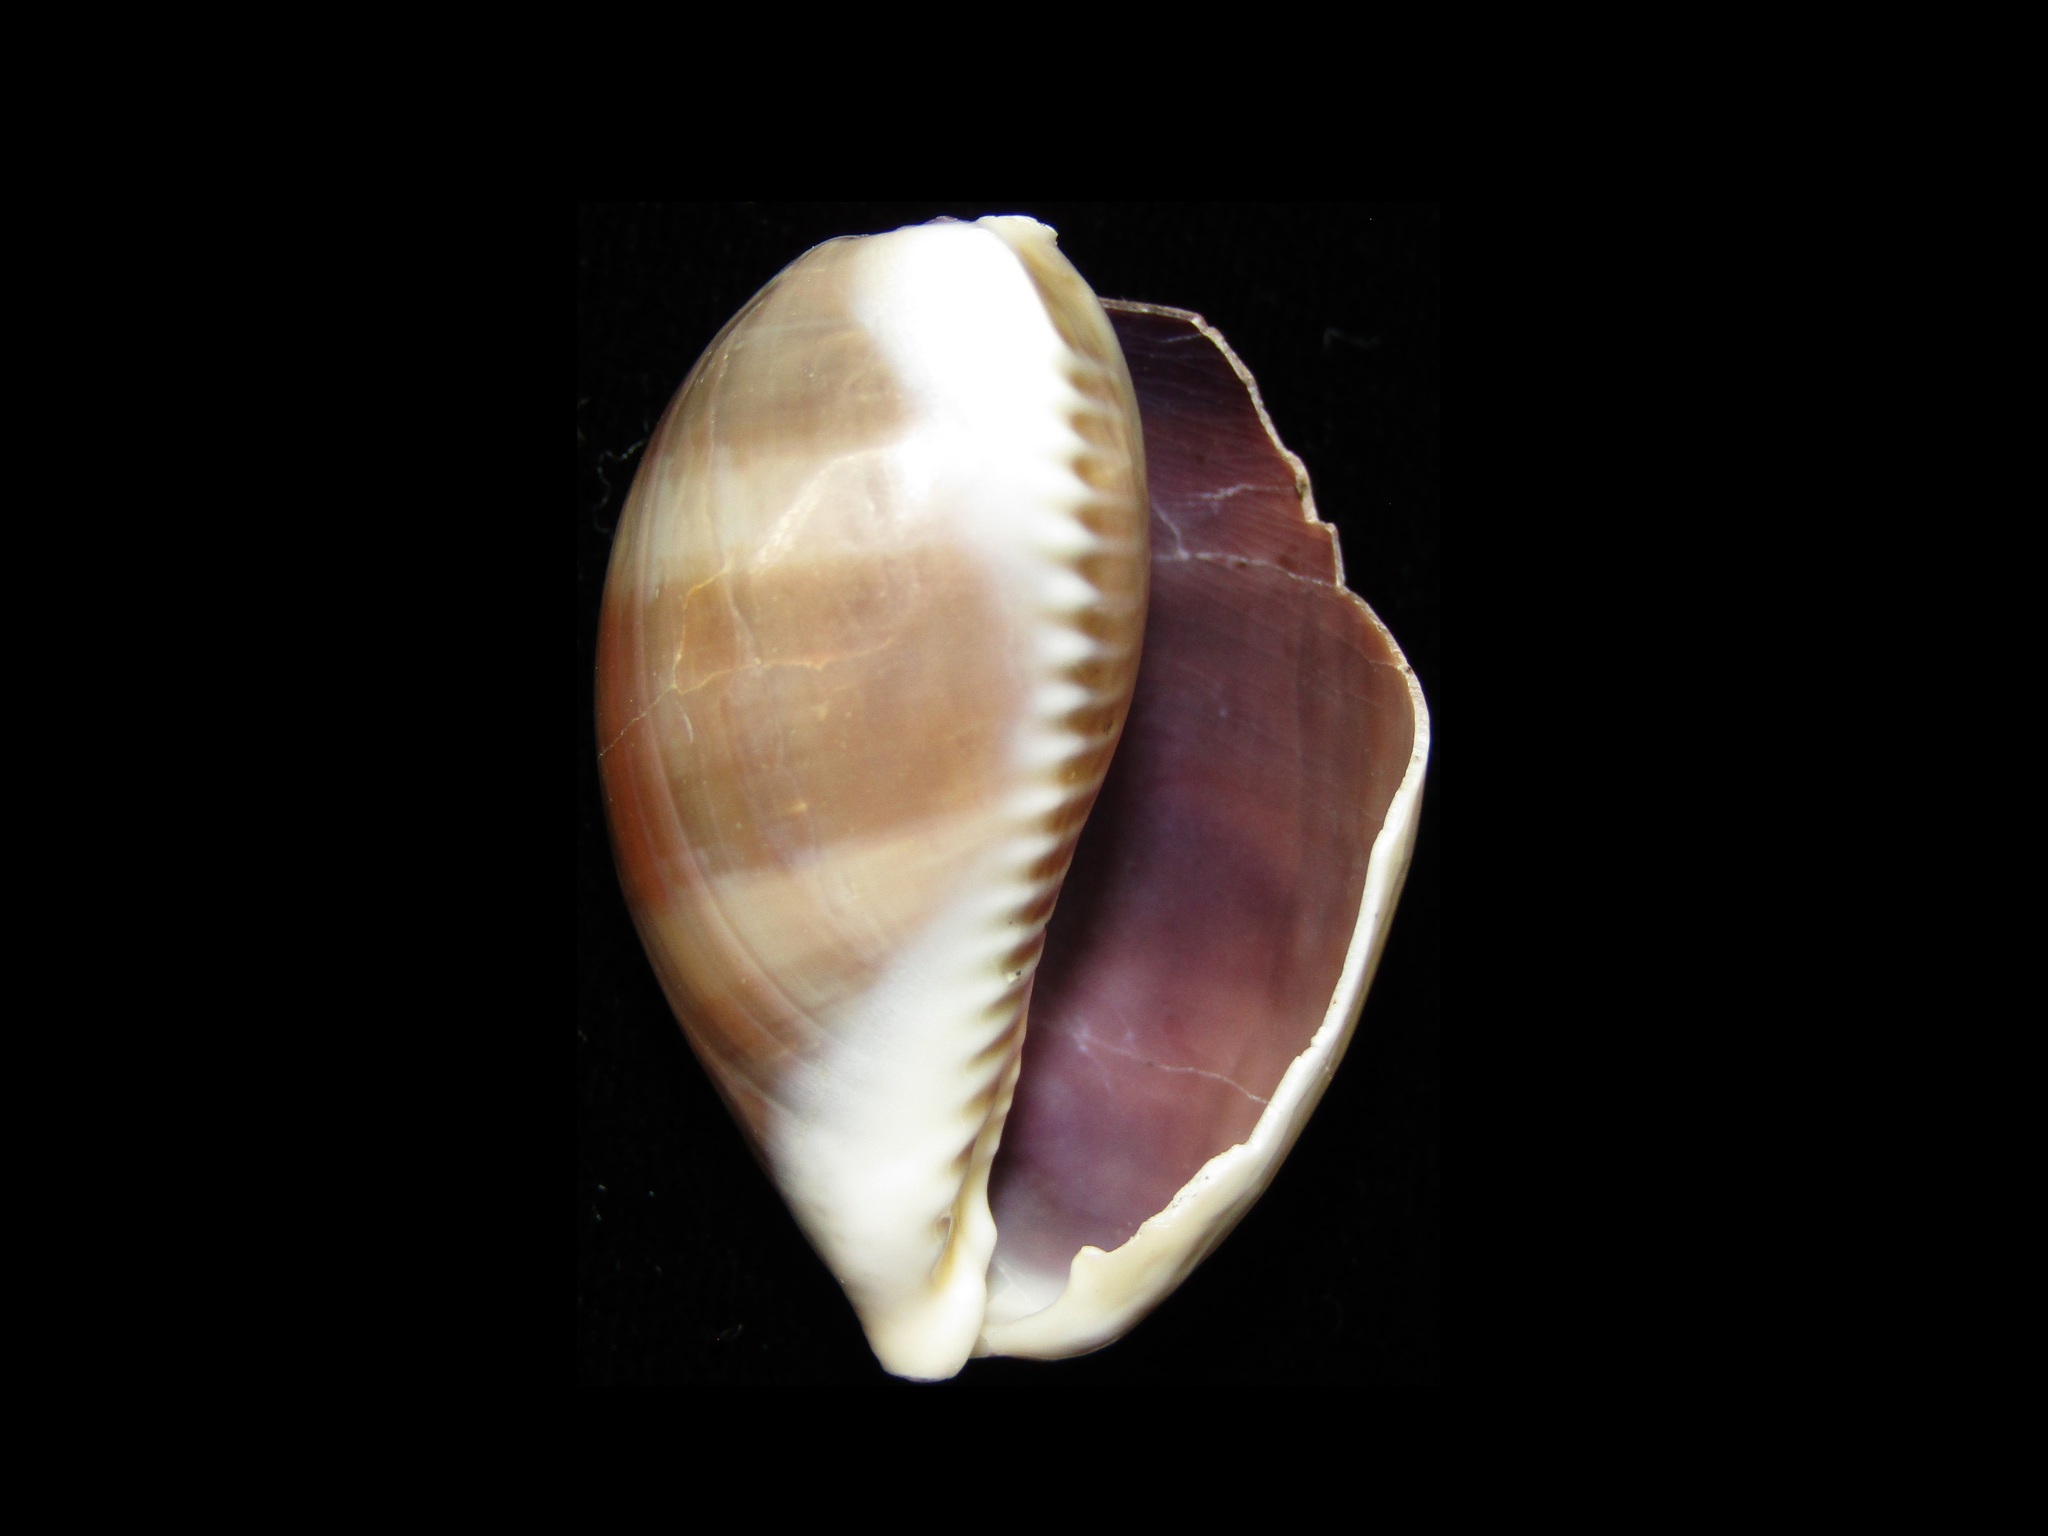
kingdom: Animalia
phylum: Mollusca
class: Gastropoda
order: Littorinimorpha
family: Cypraeidae
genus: Lyncina
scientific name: Lyncina vitellus
